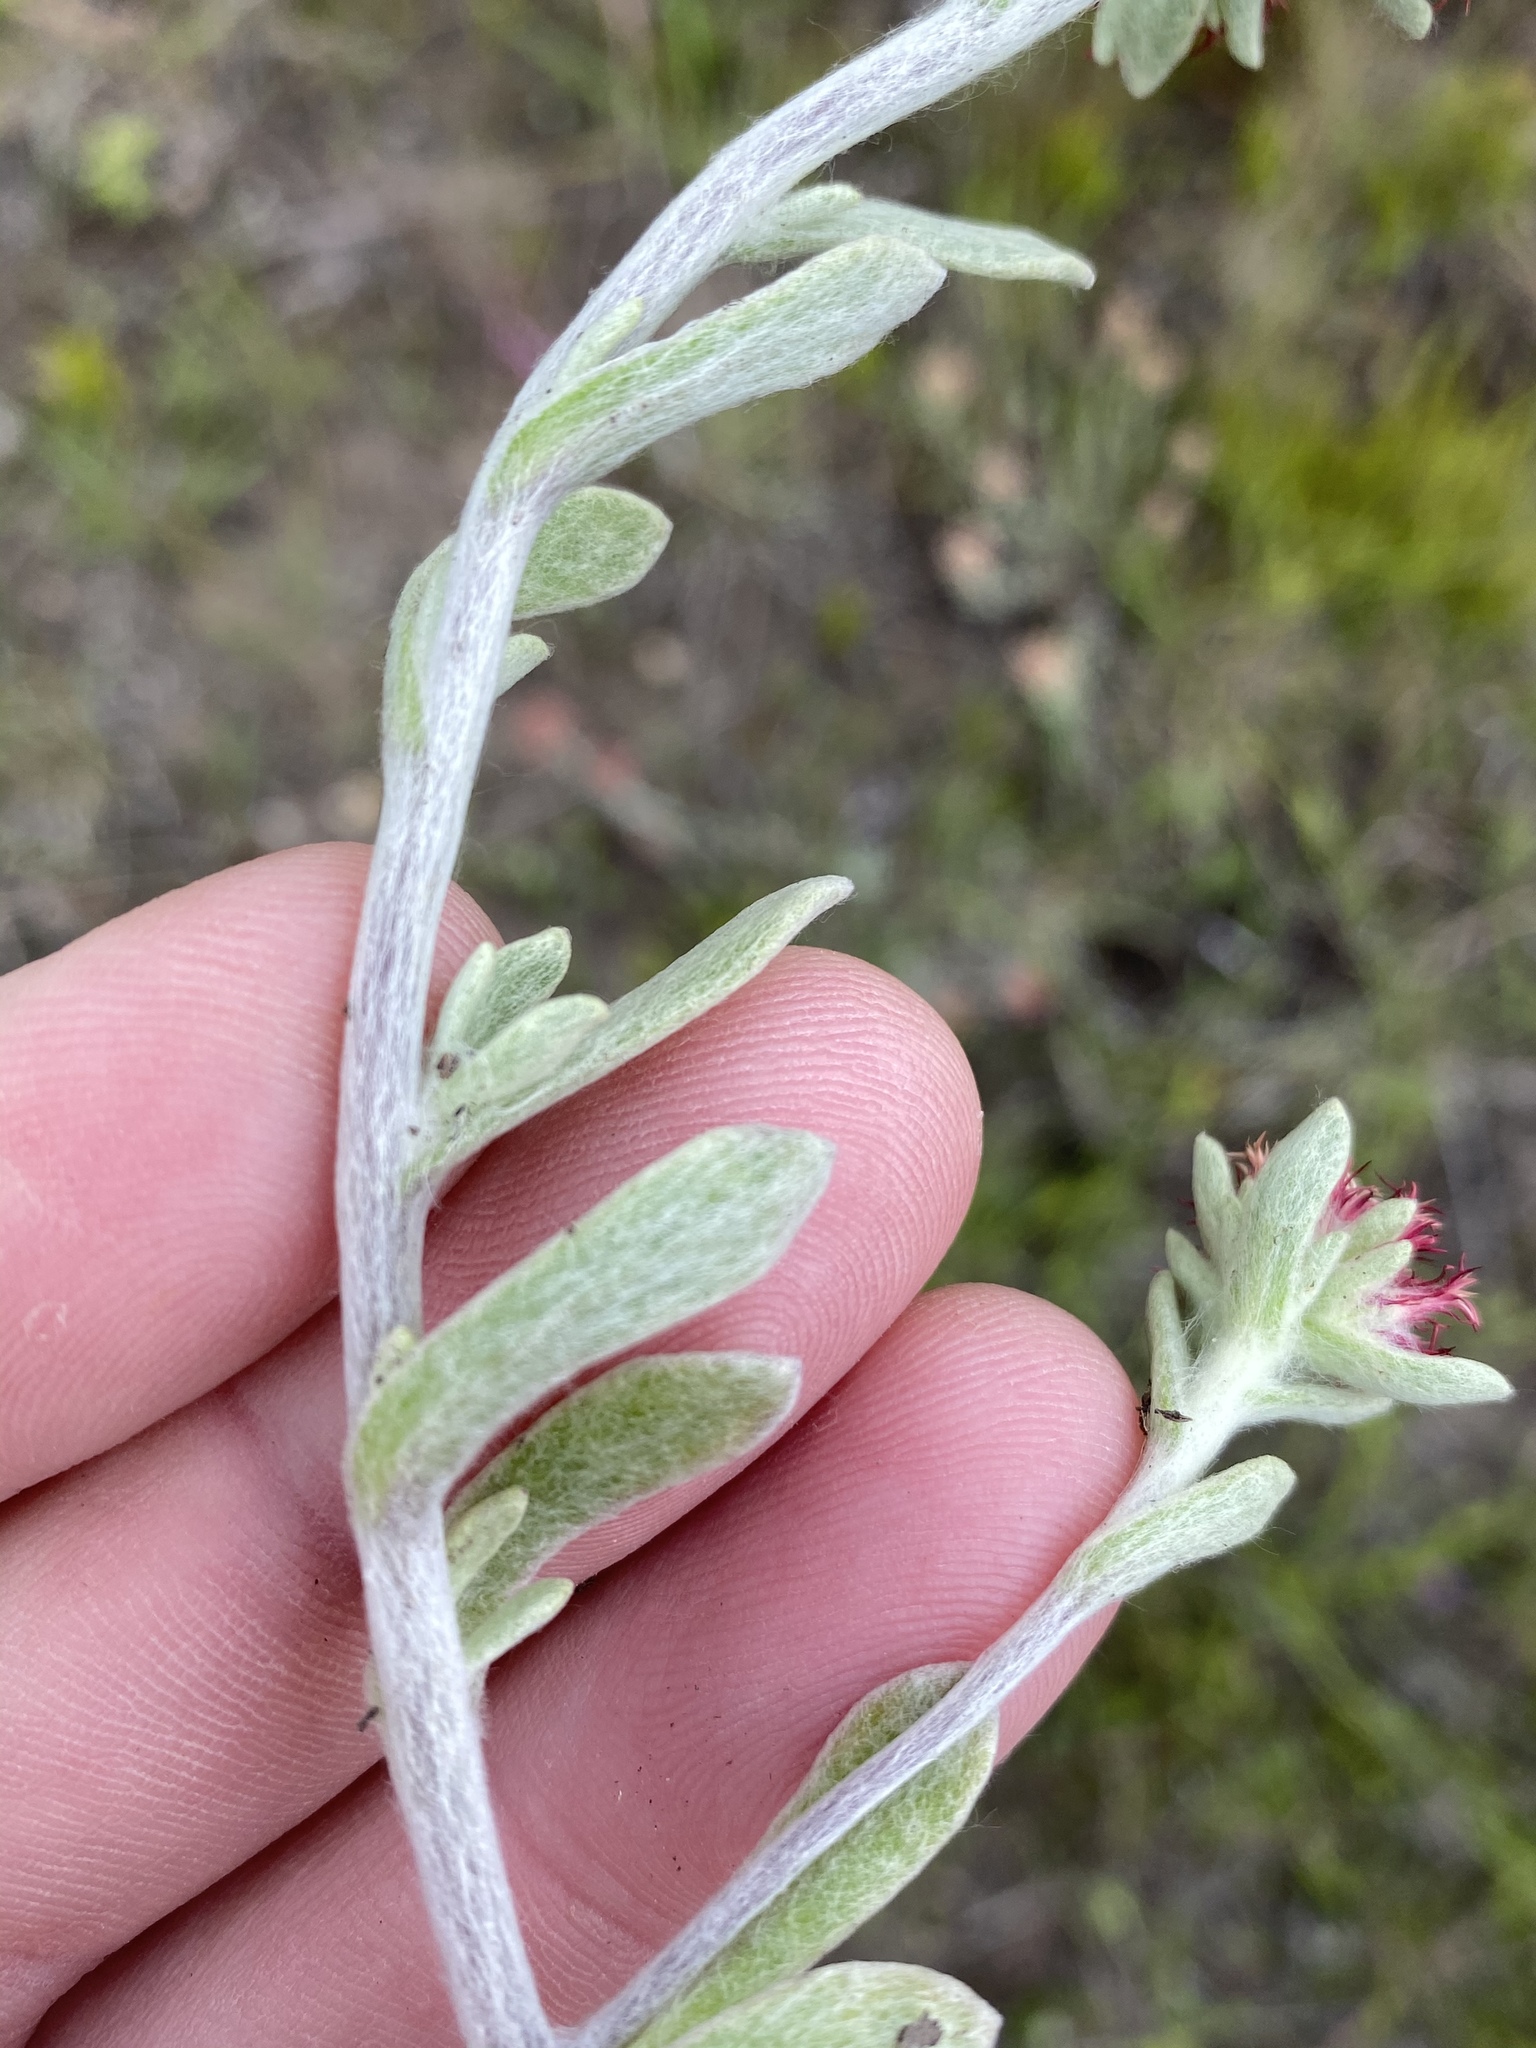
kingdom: Plantae
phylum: Tracheophyta
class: Magnoliopsida
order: Asterales
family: Asteraceae
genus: Helichrysum
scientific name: Helichrysum spiralepis
